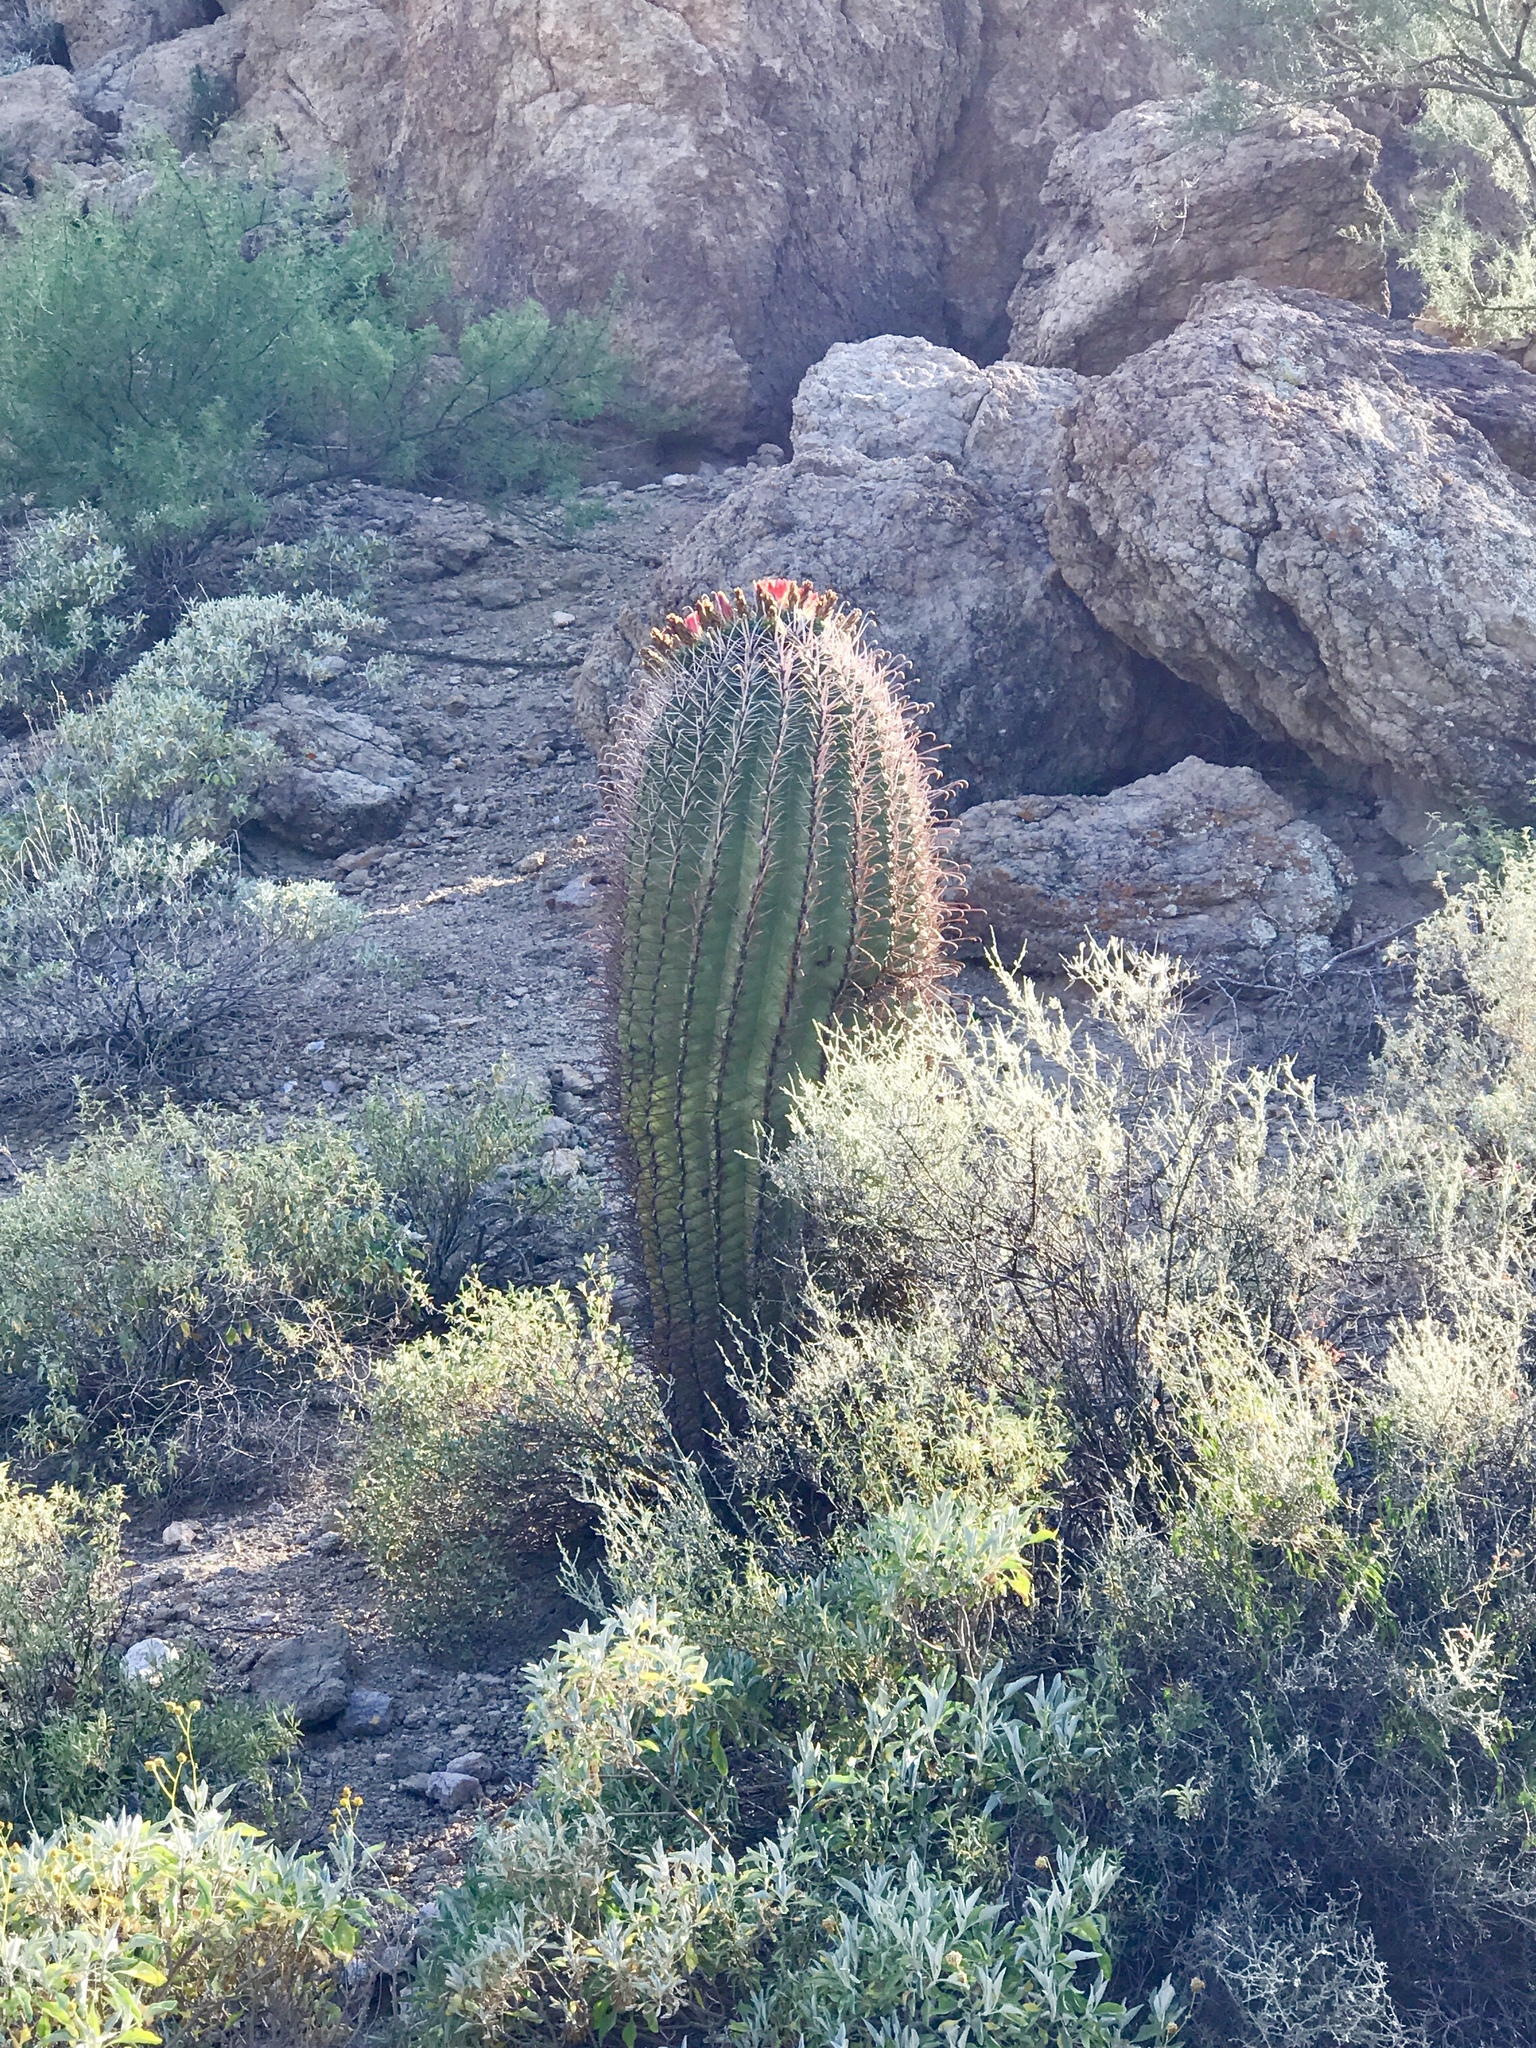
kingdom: Plantae
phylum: Tracheophyta
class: Magnoliopsida
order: Caryophyllales
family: Cactaceae
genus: Ferocactus
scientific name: Ferocactus wislizeni
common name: Candy barrel cactus
